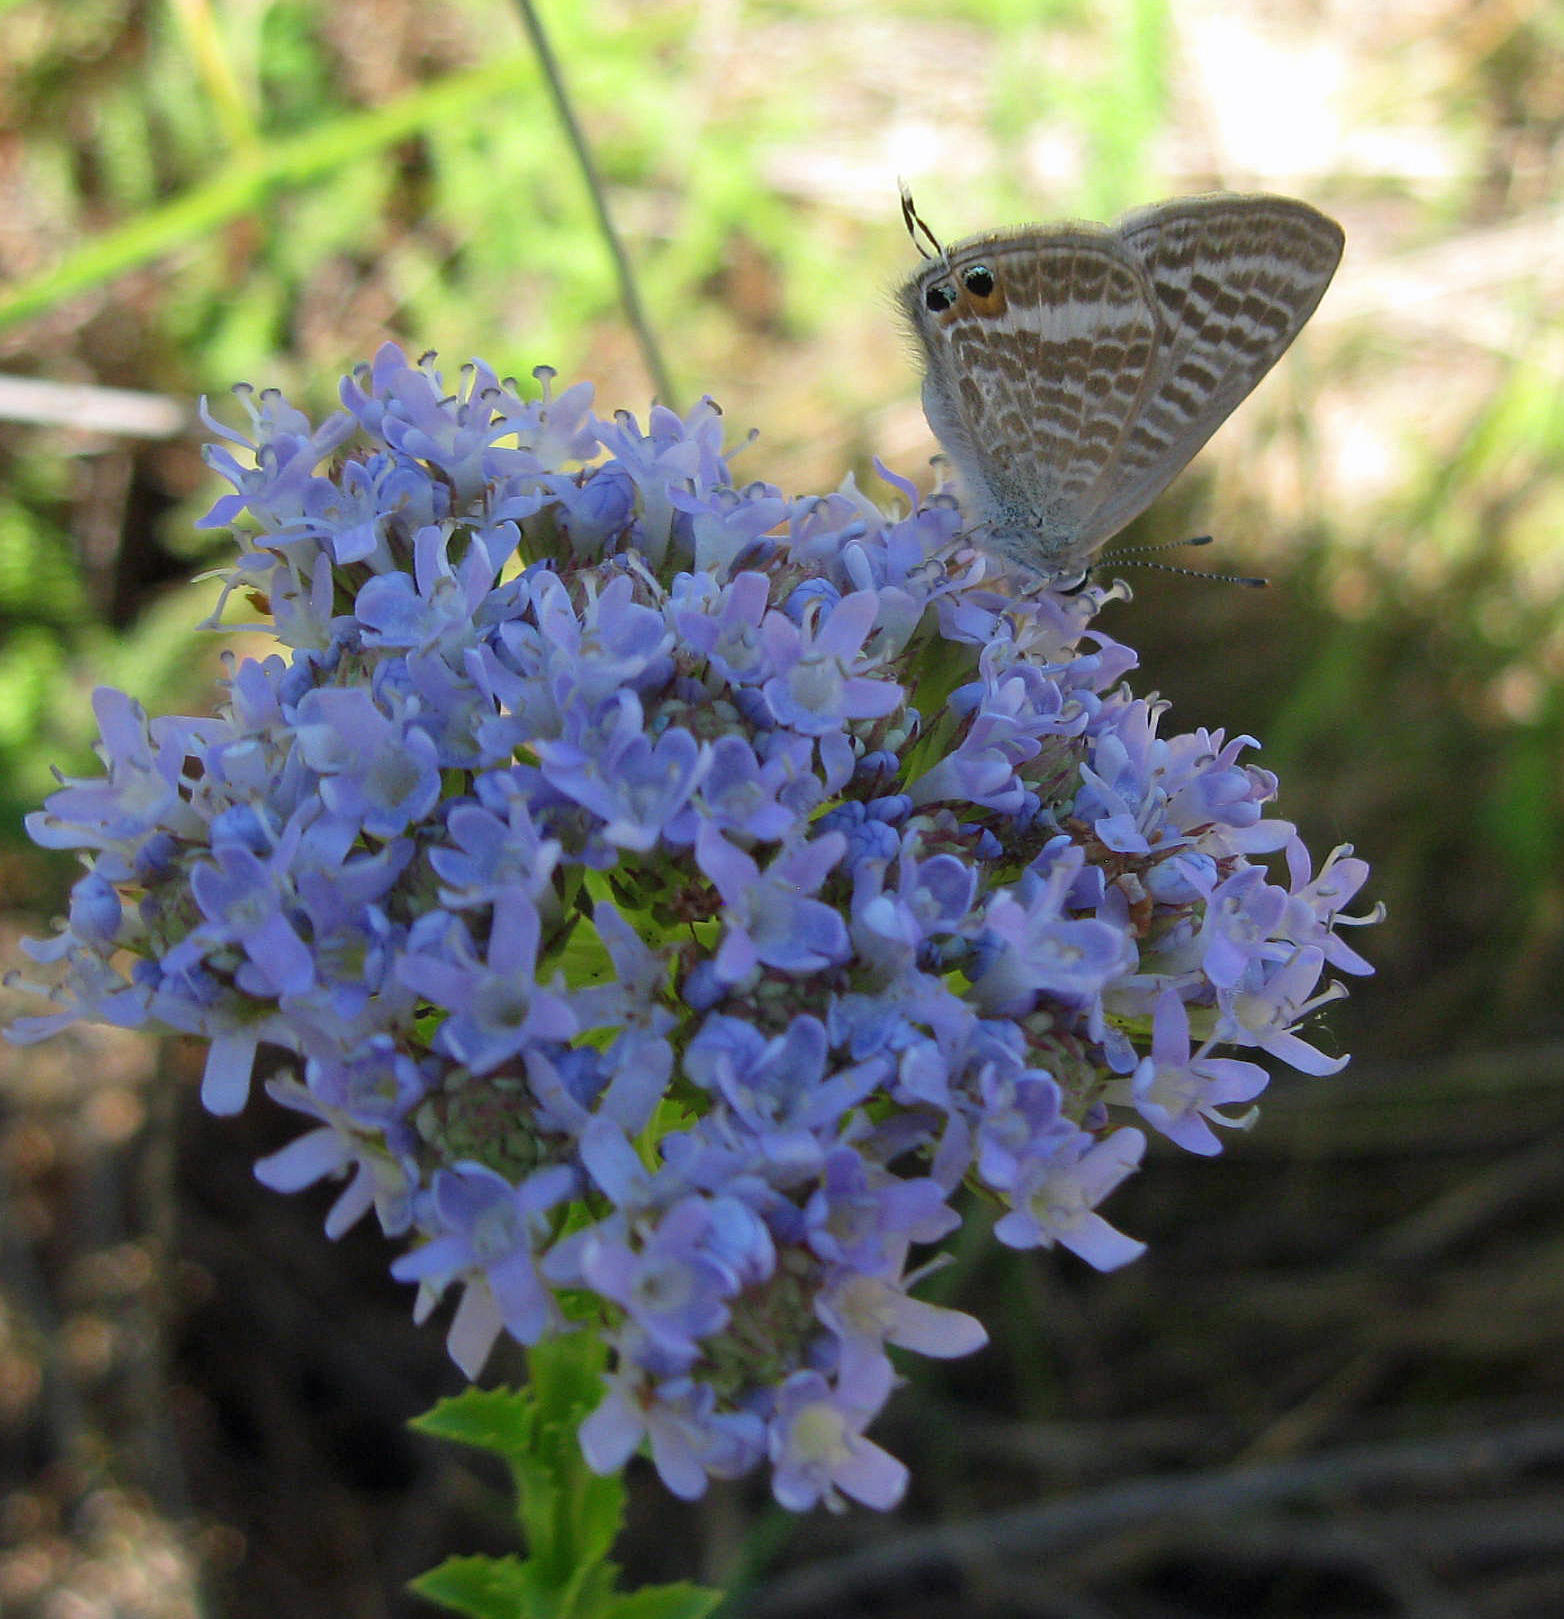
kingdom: Plantae
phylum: Tracheophyta
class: Magnoliopsida
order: Lamiales
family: Scrophulariaceae
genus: Pseudoselago
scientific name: Pseudoselago serrata
